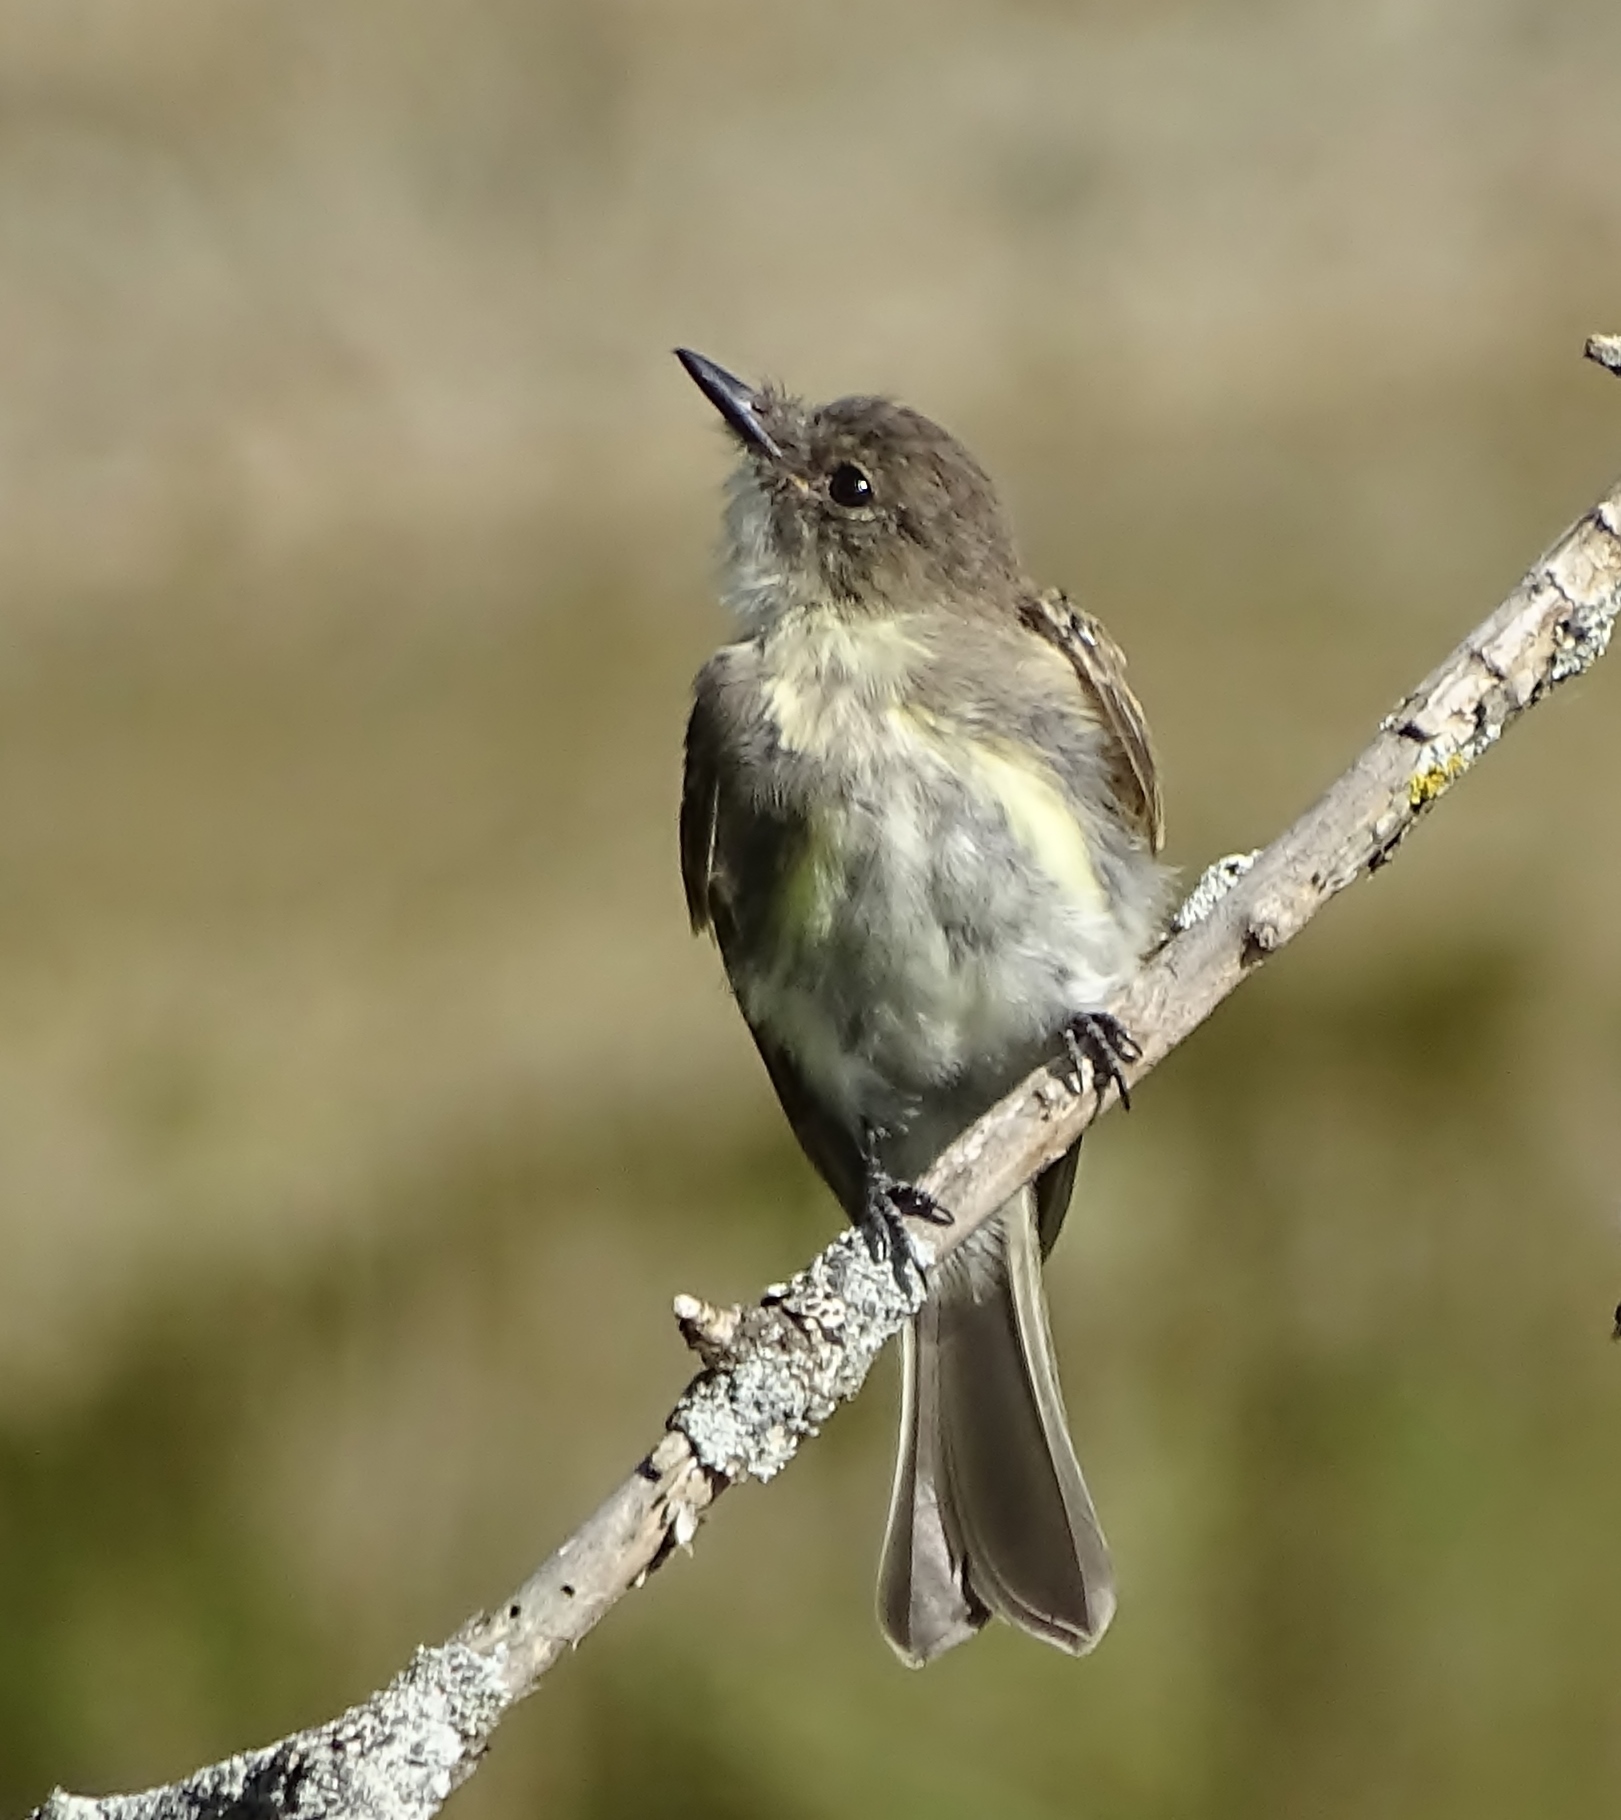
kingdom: Animalia
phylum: Chordata
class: Aves
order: Passeriformes
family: Tyrannidae
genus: Sayornis
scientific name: Sayornis phoebe
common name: Eastern phoebe
